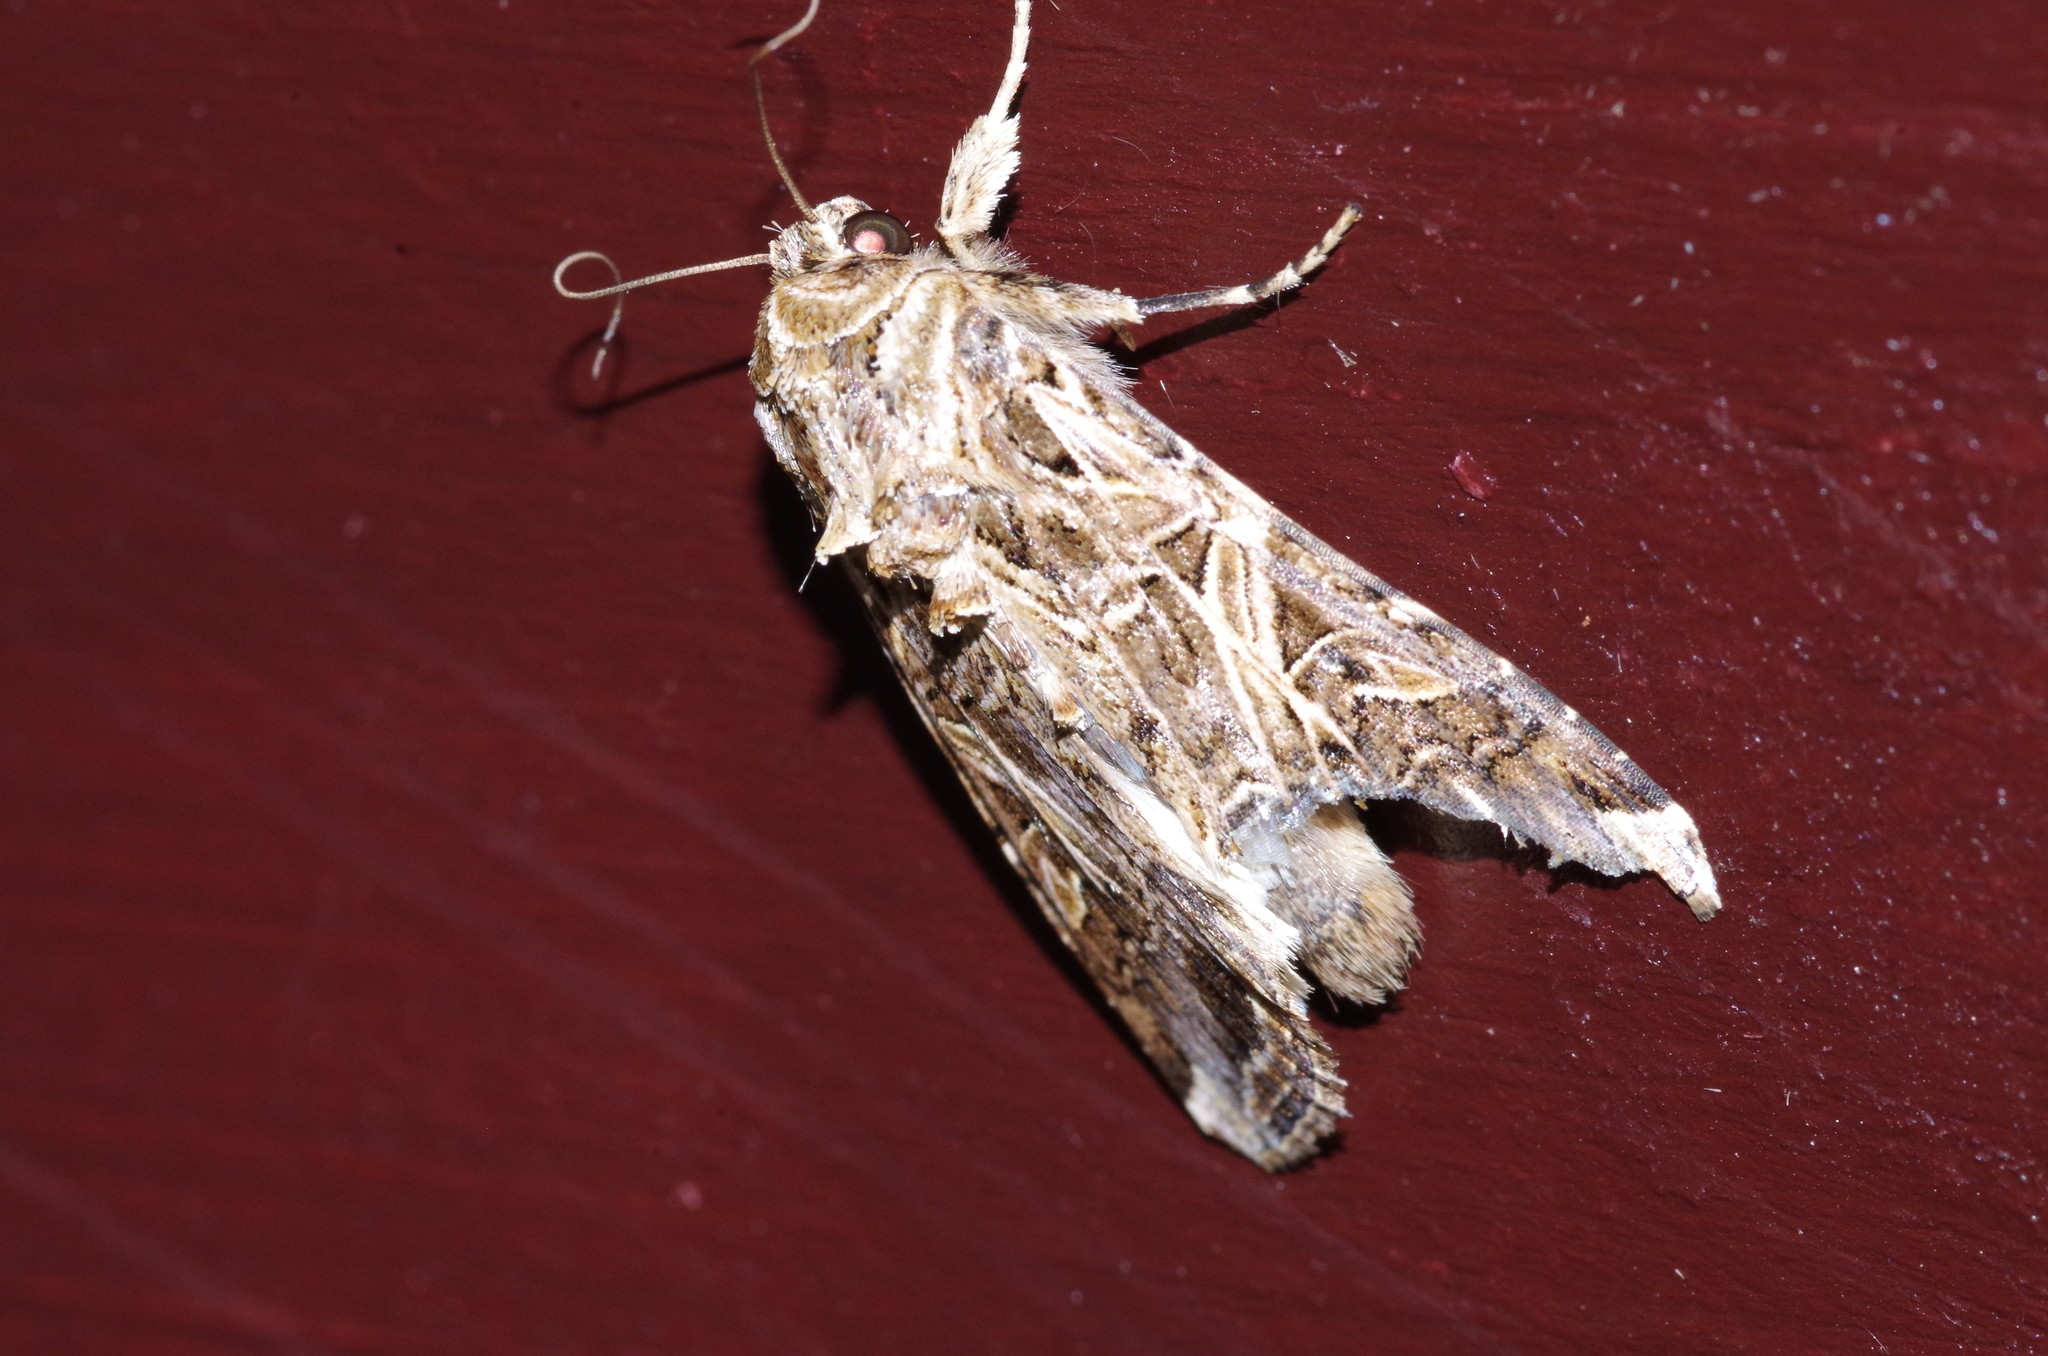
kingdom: Animalia
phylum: Arthropoda
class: Insecta
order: Lepidoptera
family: Noctuidae
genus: Spodoptera
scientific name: Spodoptera litura
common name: Asian cotton leafworm
